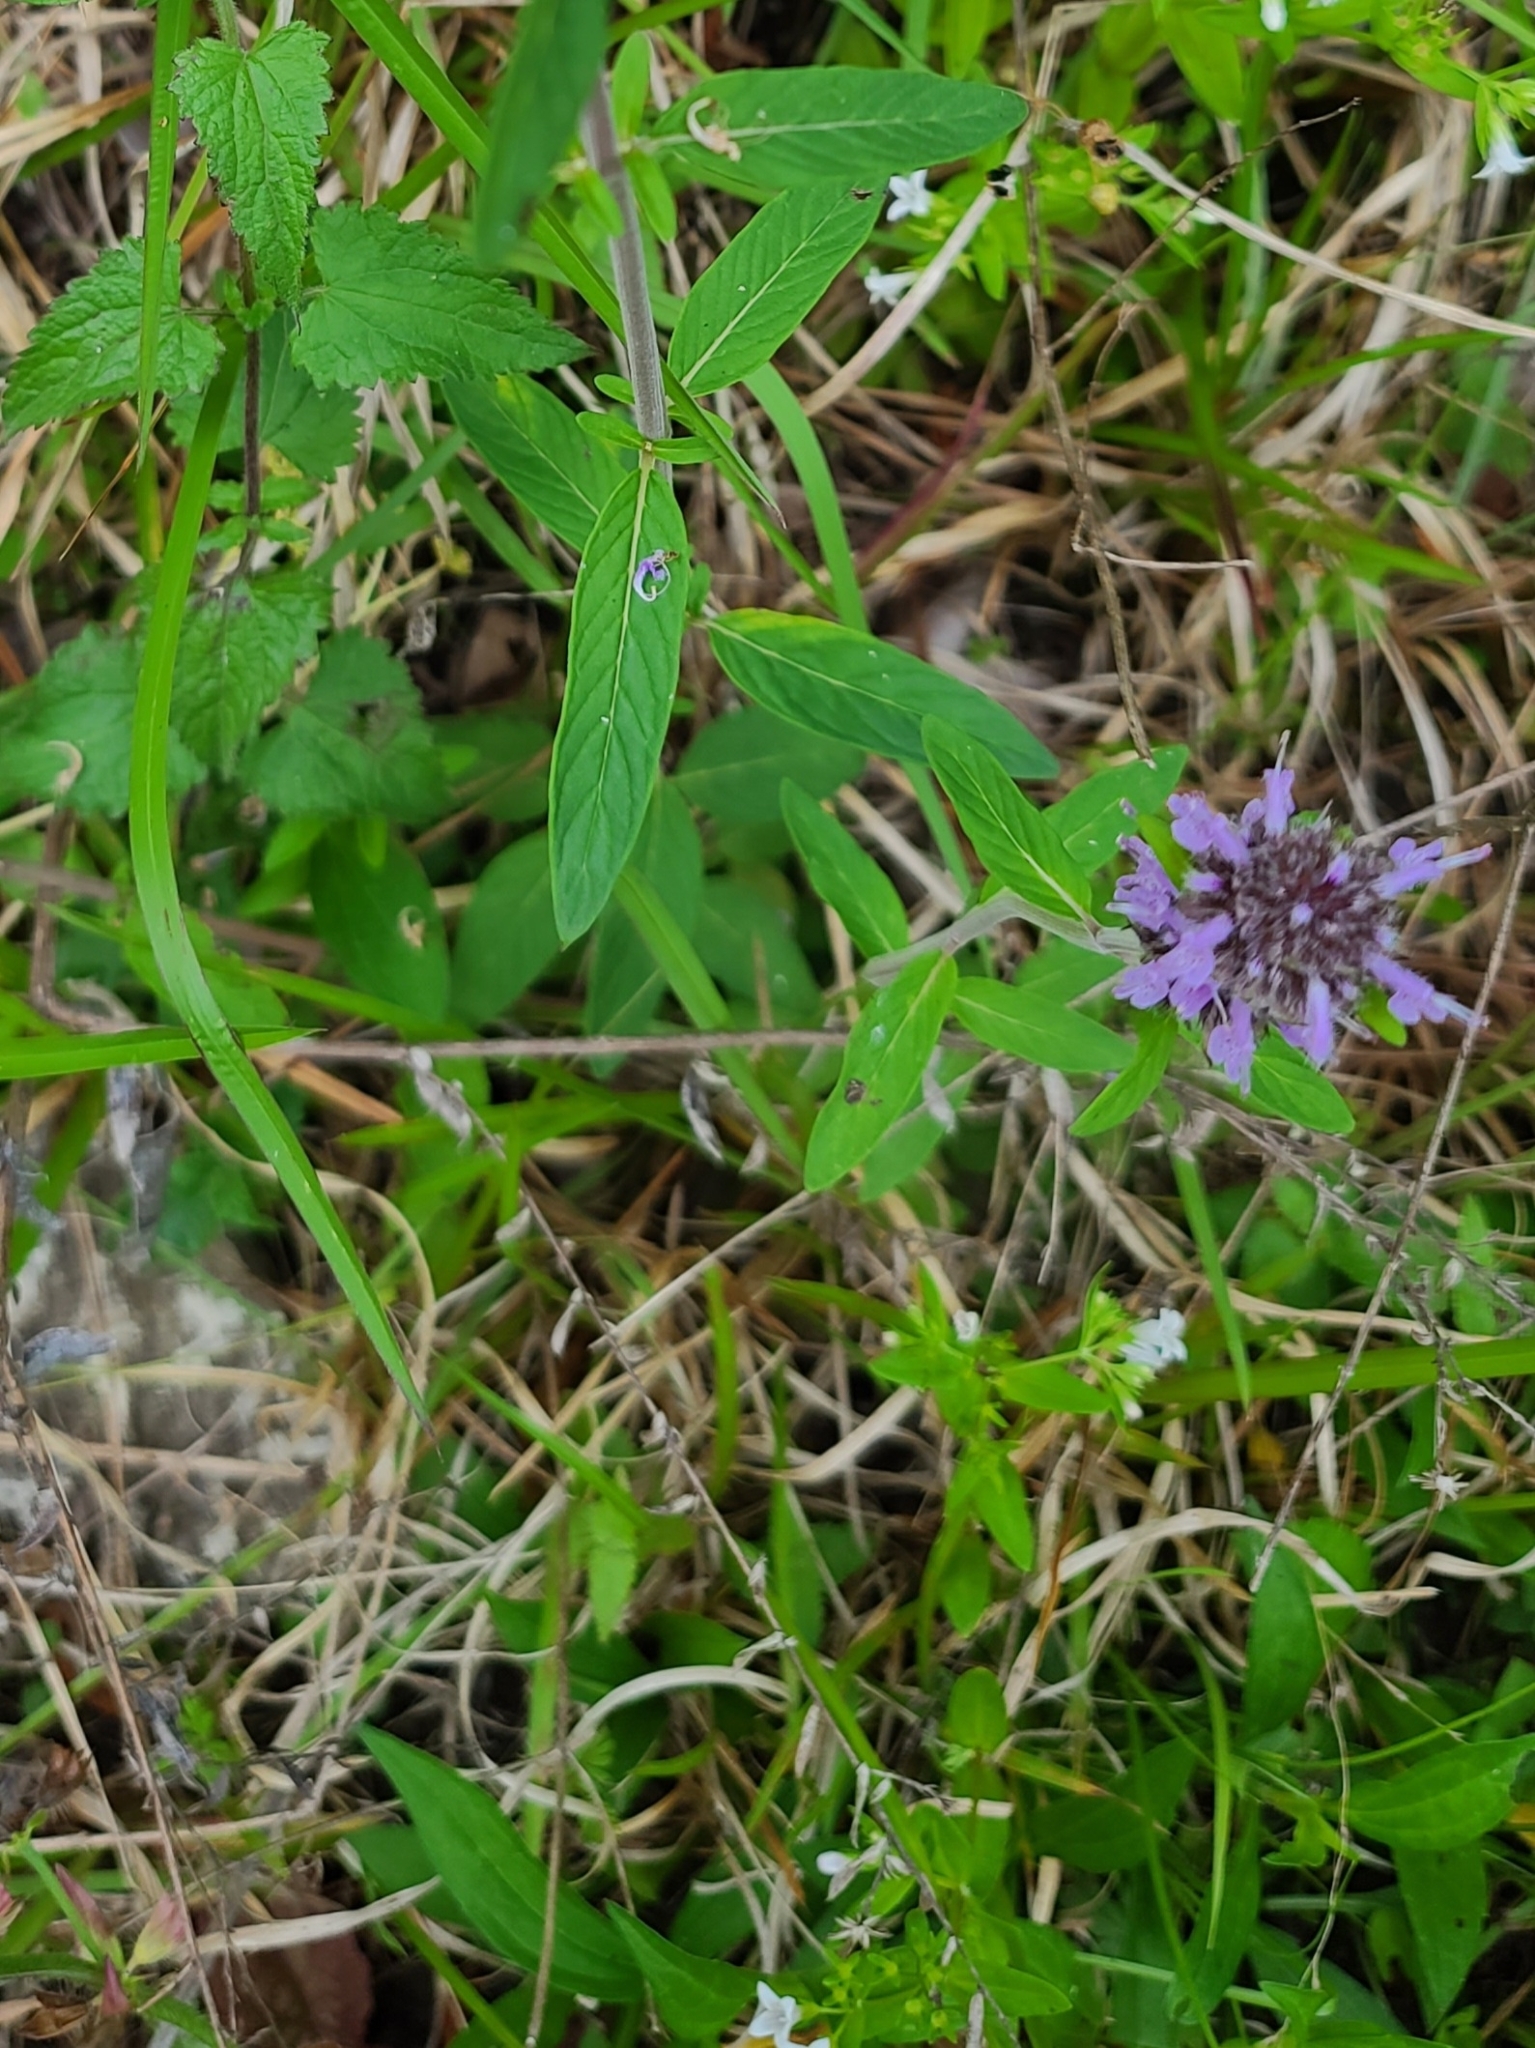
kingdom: Plantae
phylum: Tracheophyta
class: Magnoliopsida
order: Lamiales
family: Lamiaceae
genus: Blephilia
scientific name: Blephilia ciliata
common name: Downy blephilia
